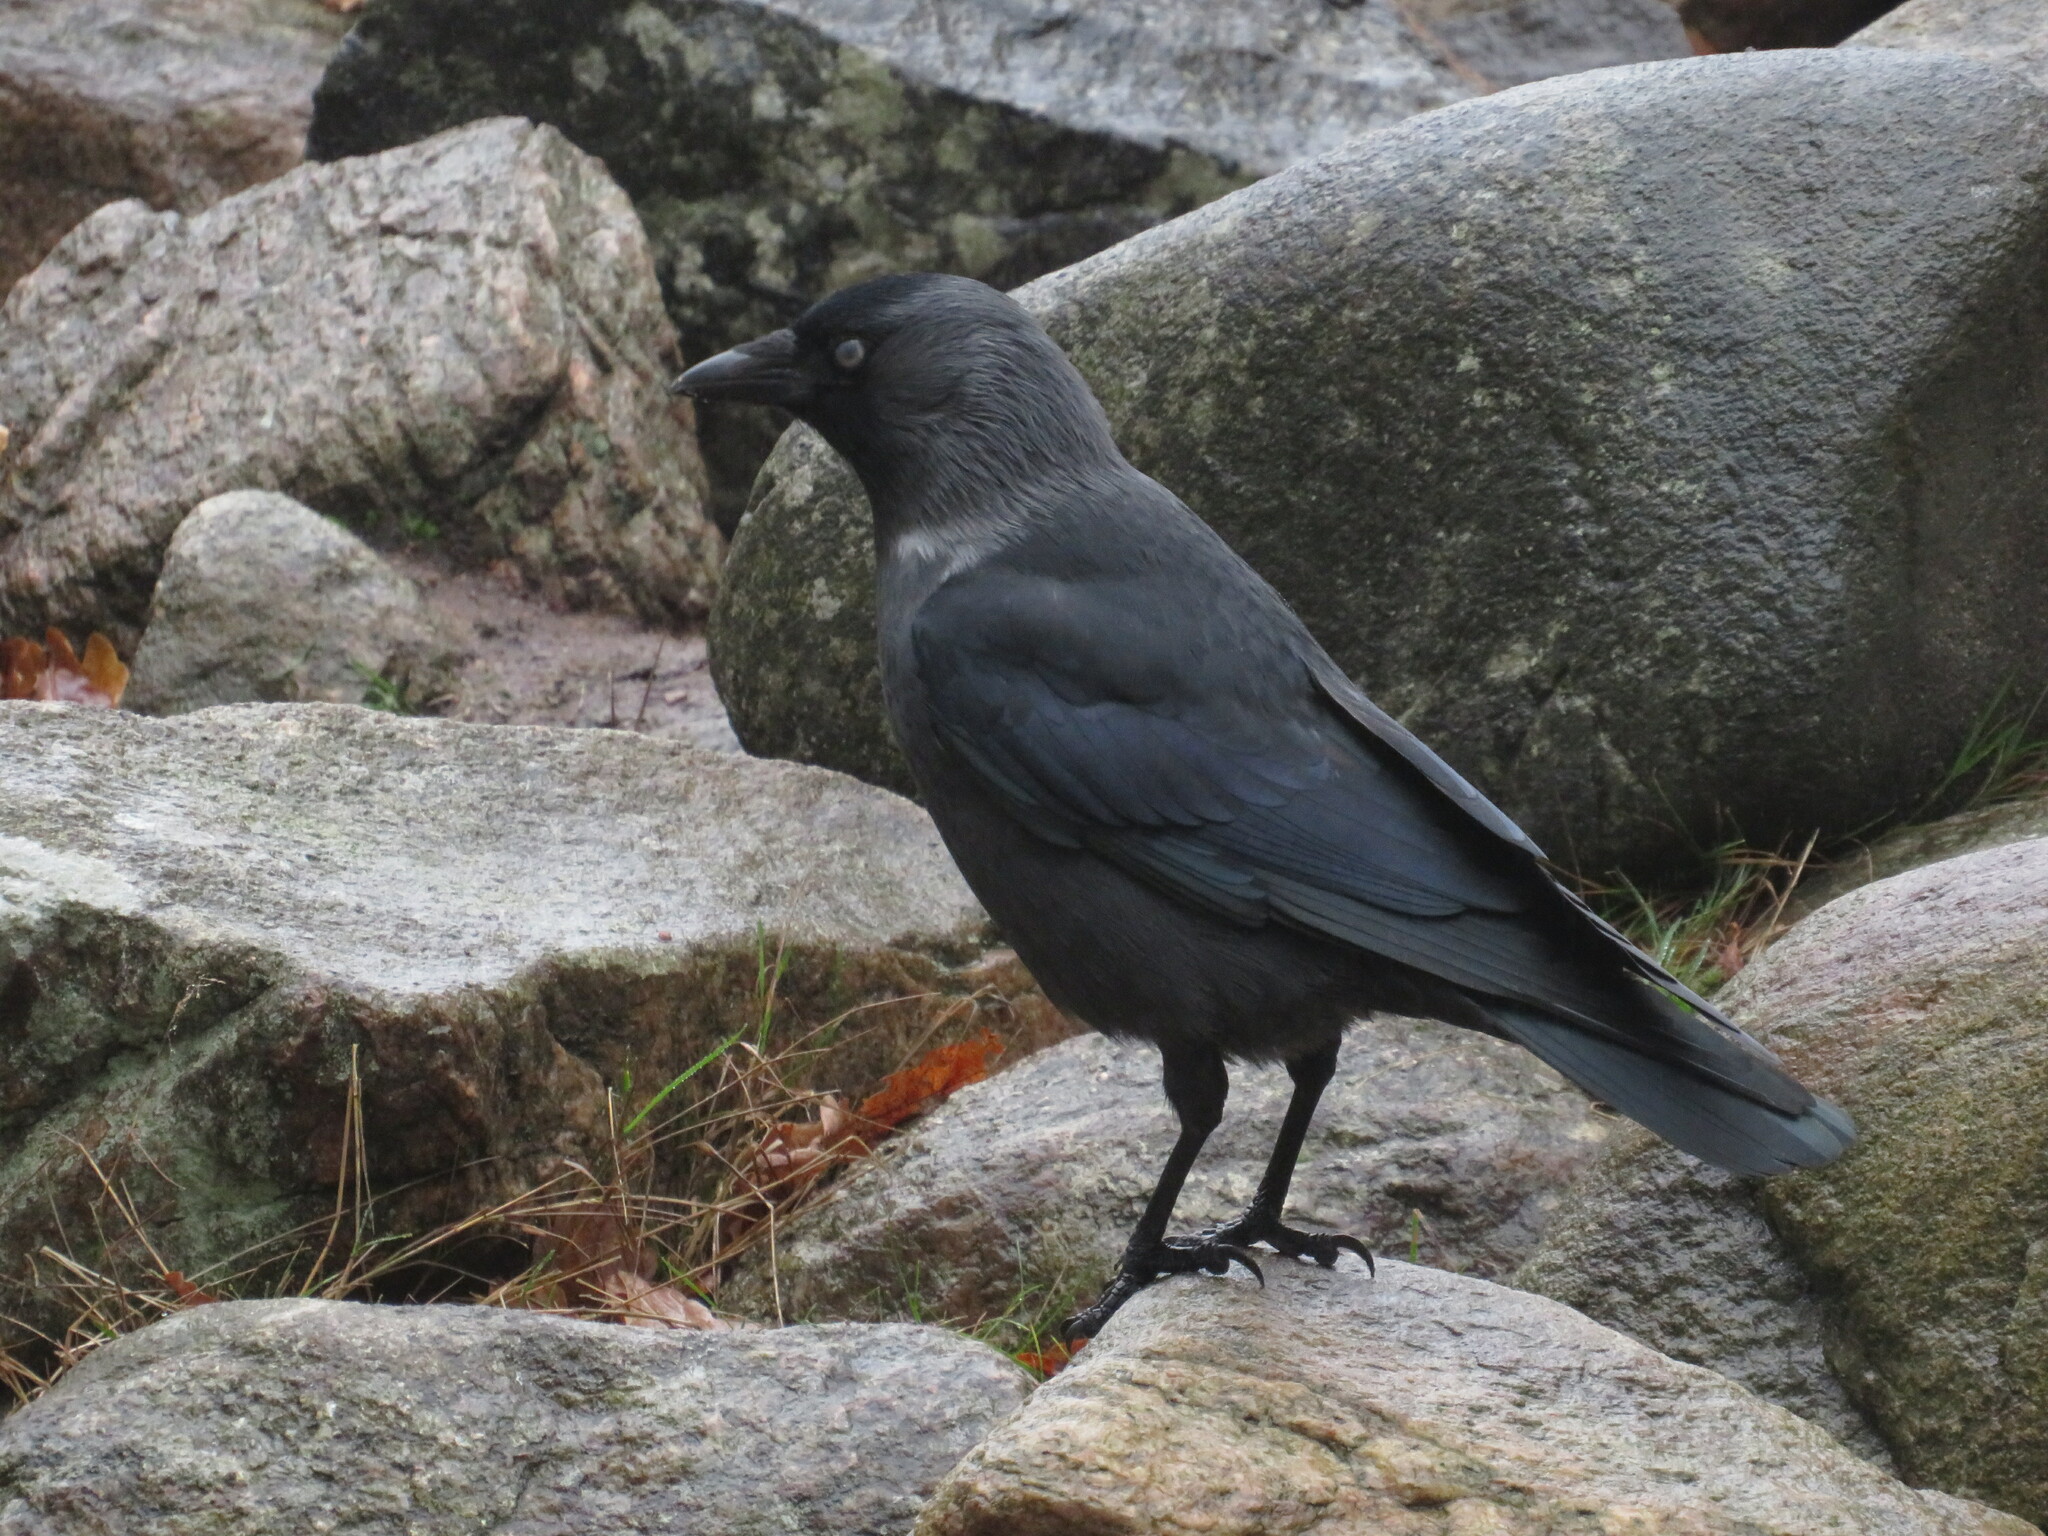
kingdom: Animalia
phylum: Chordata
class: Aves
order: Passeriformes
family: Corvidae
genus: Coloeus
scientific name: Coloeus monedula
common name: Western jackdaw
